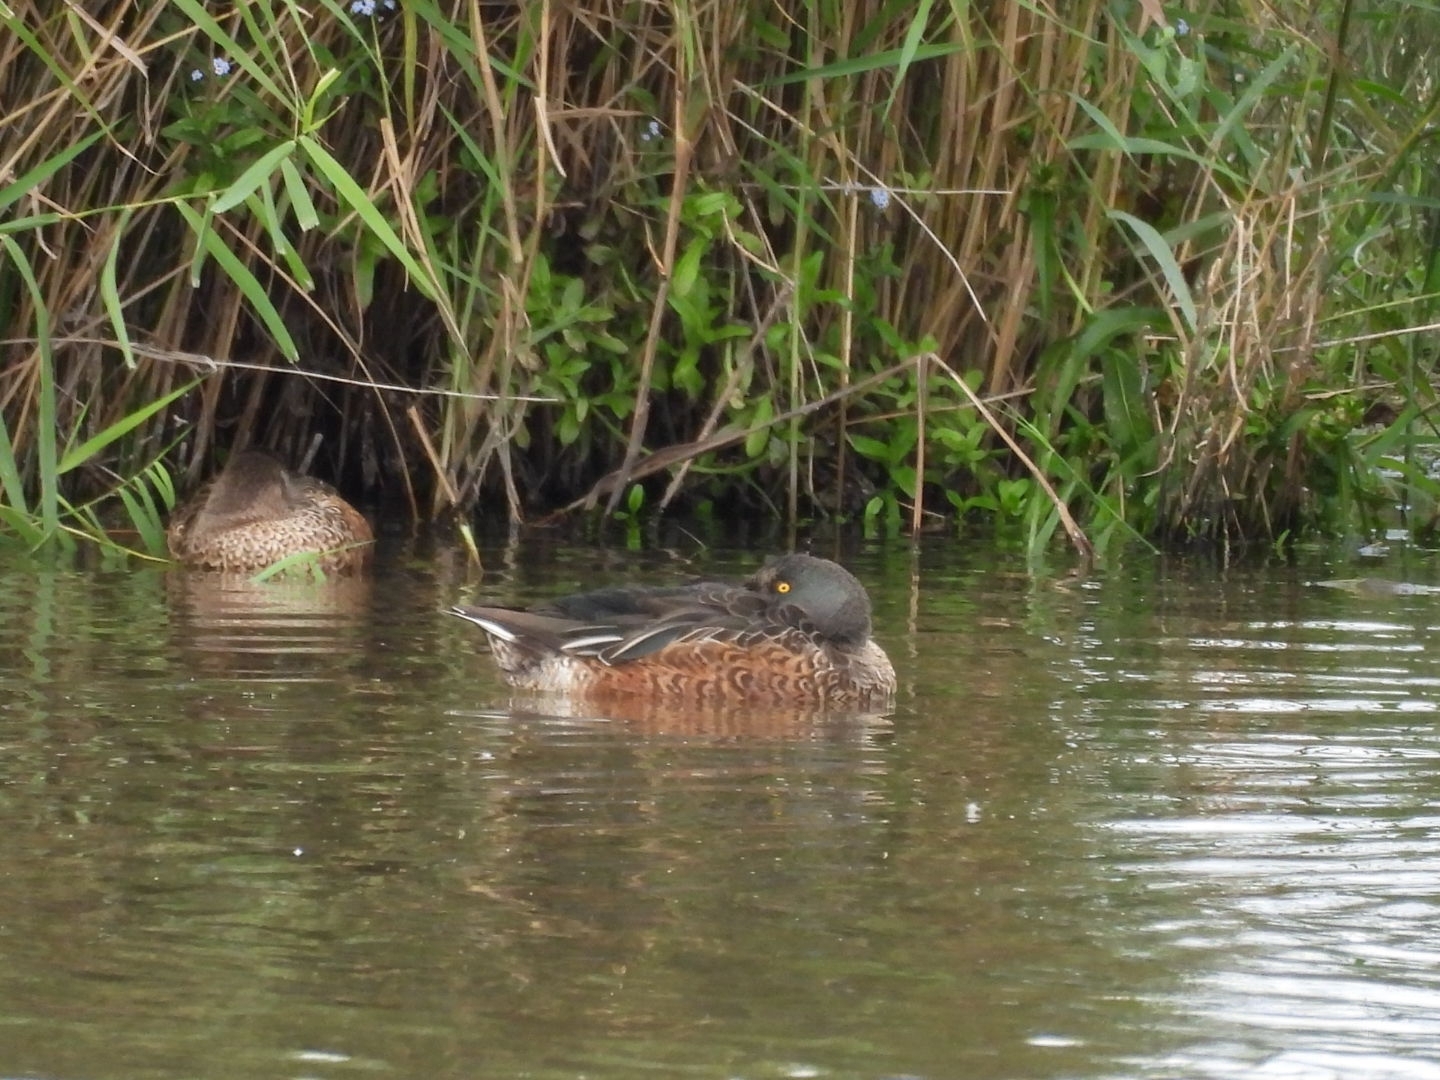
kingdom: Animalia
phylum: Chordata
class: Aves
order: Anseriformes
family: Anatidae
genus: Spatula
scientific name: Spatula clypeata
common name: Northern shoveler
